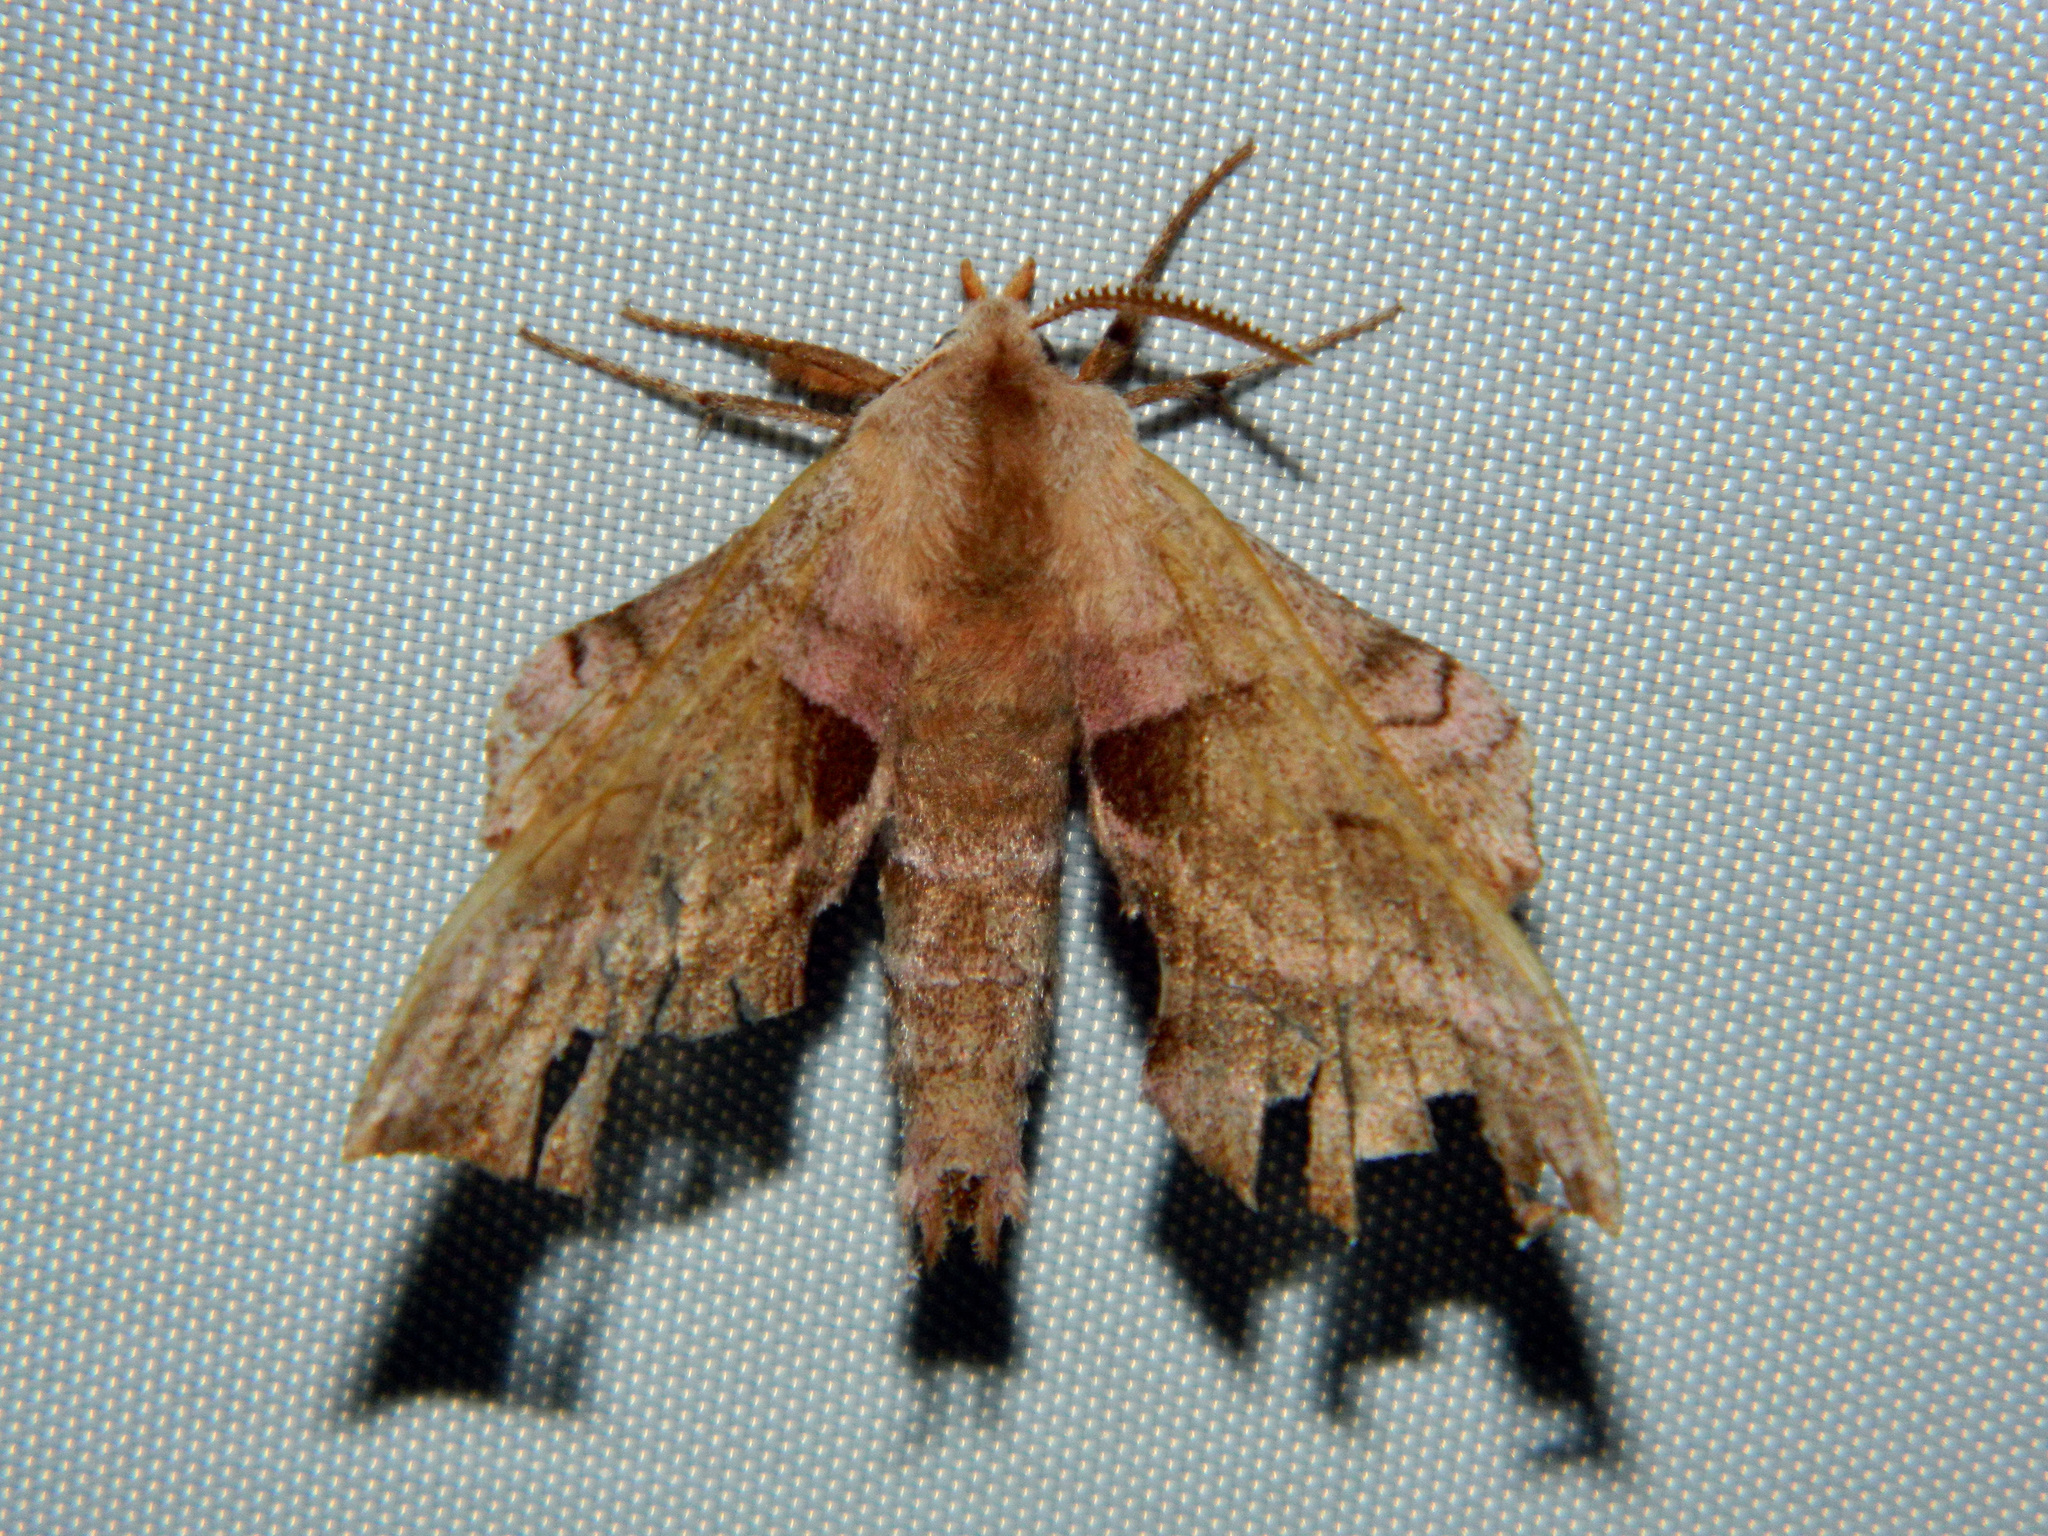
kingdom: Animalia
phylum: Arthropoda
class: Insecta
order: Lepidoptera
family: Sphingidae
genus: Amorpha
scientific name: Amorpha juglandis
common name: Walnut sphinx
